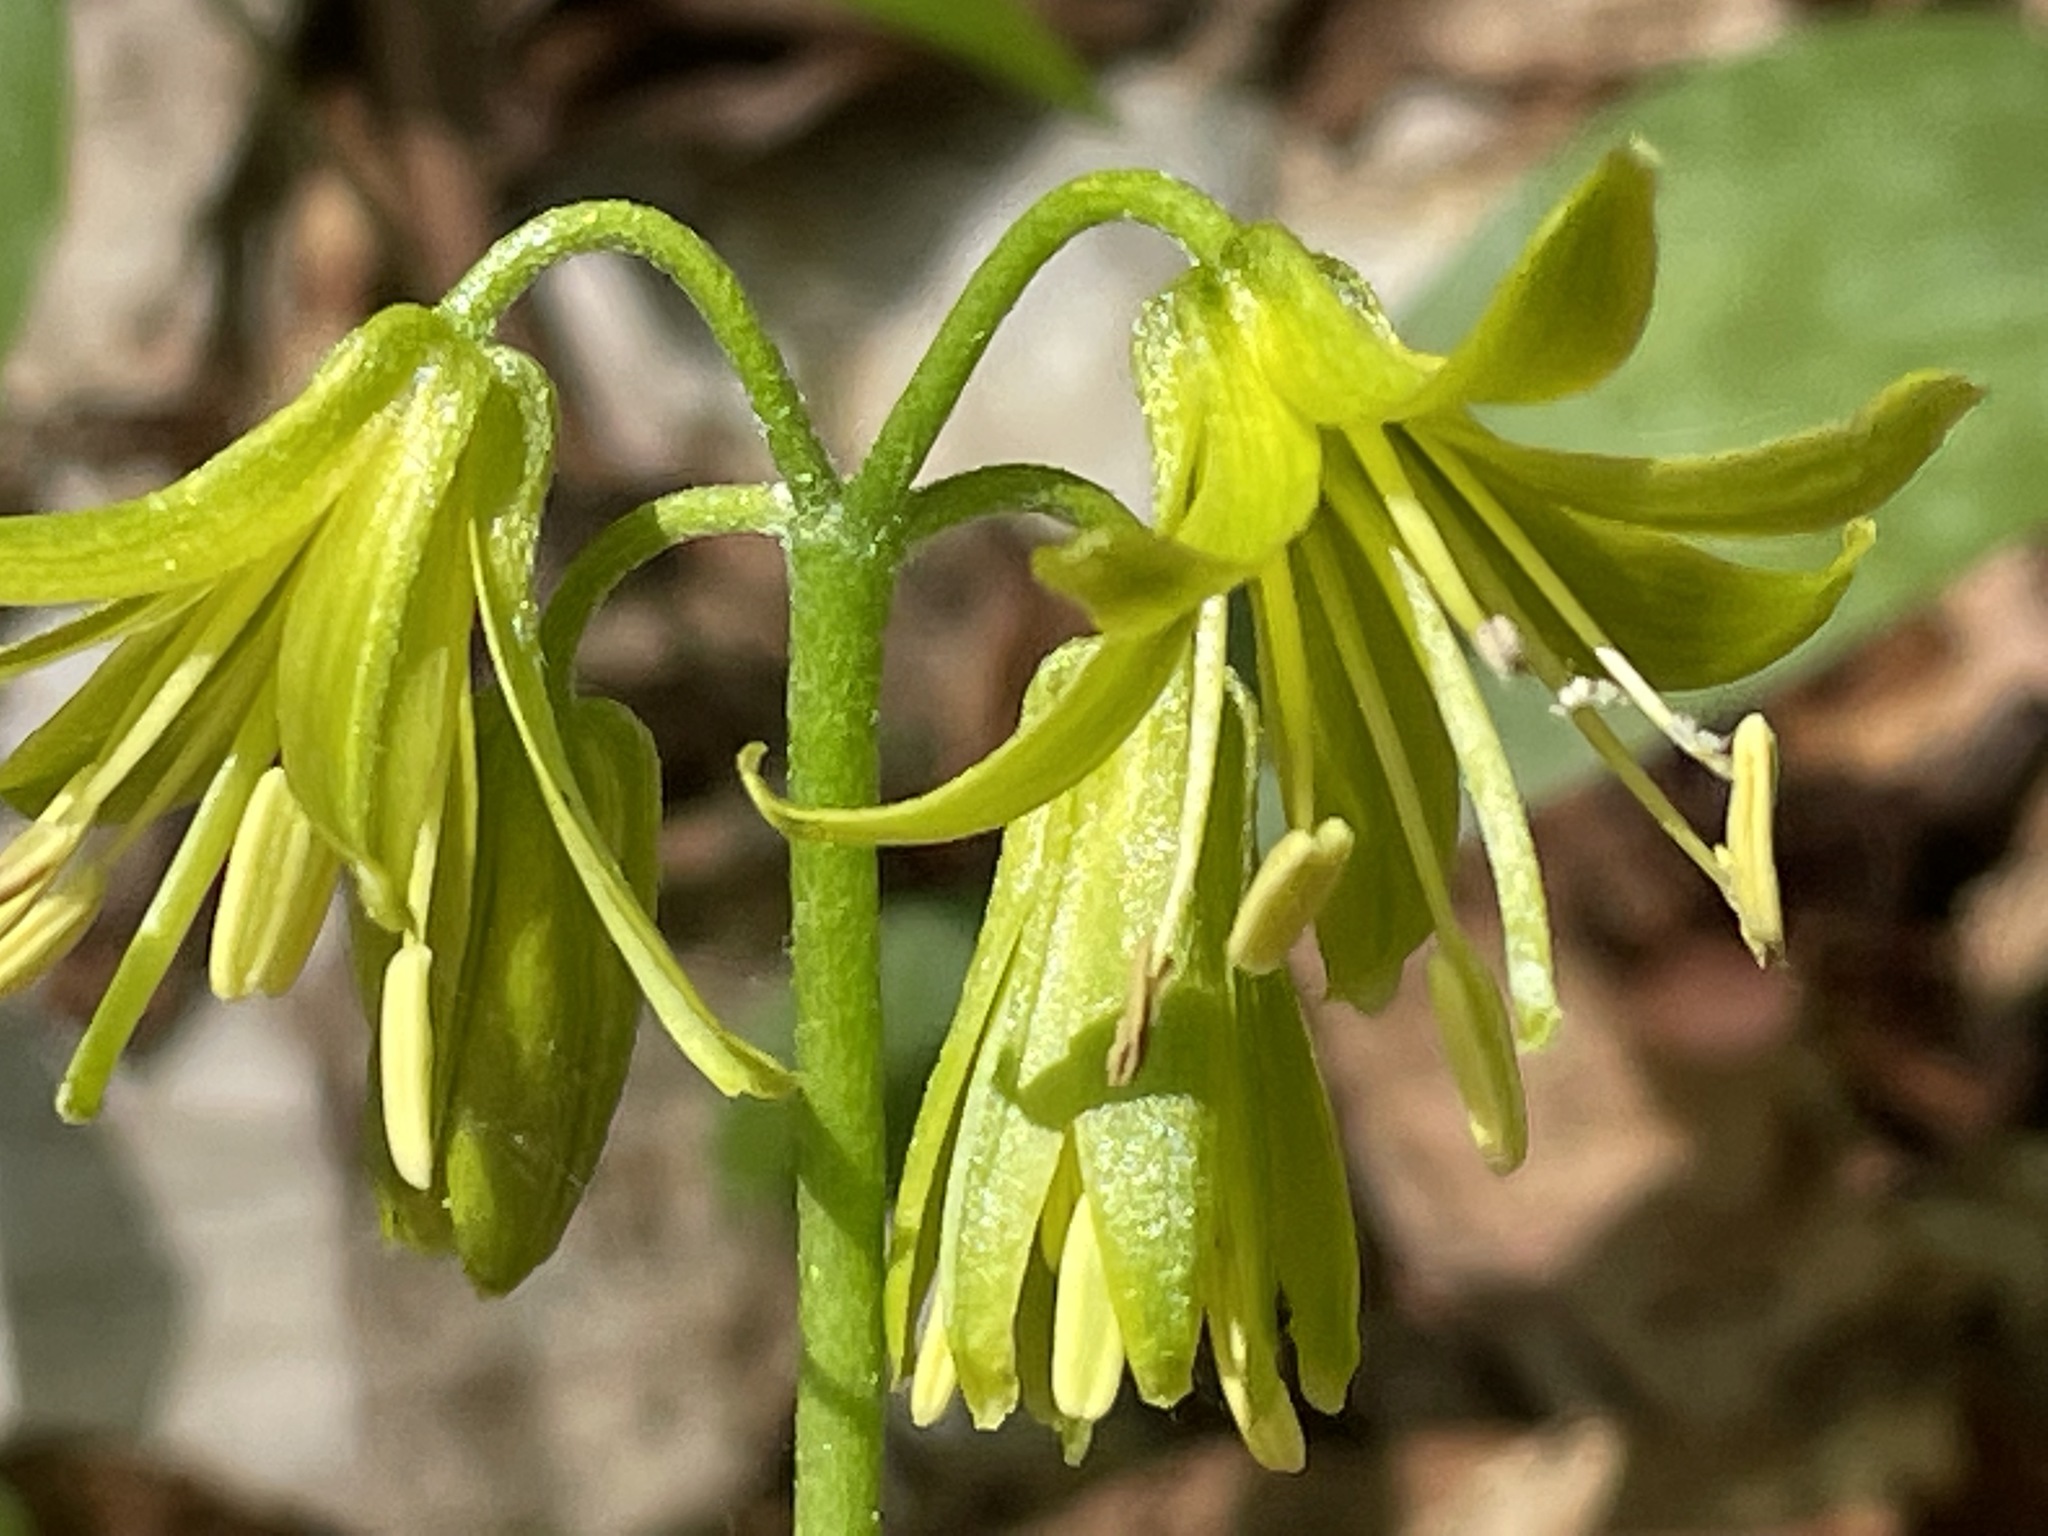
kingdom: Plantae
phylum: Tracheophyta
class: Liliopsida
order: Liliales
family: Liliaceae
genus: Clintonia
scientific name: Clintonia borealis
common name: Yellow clintonia
